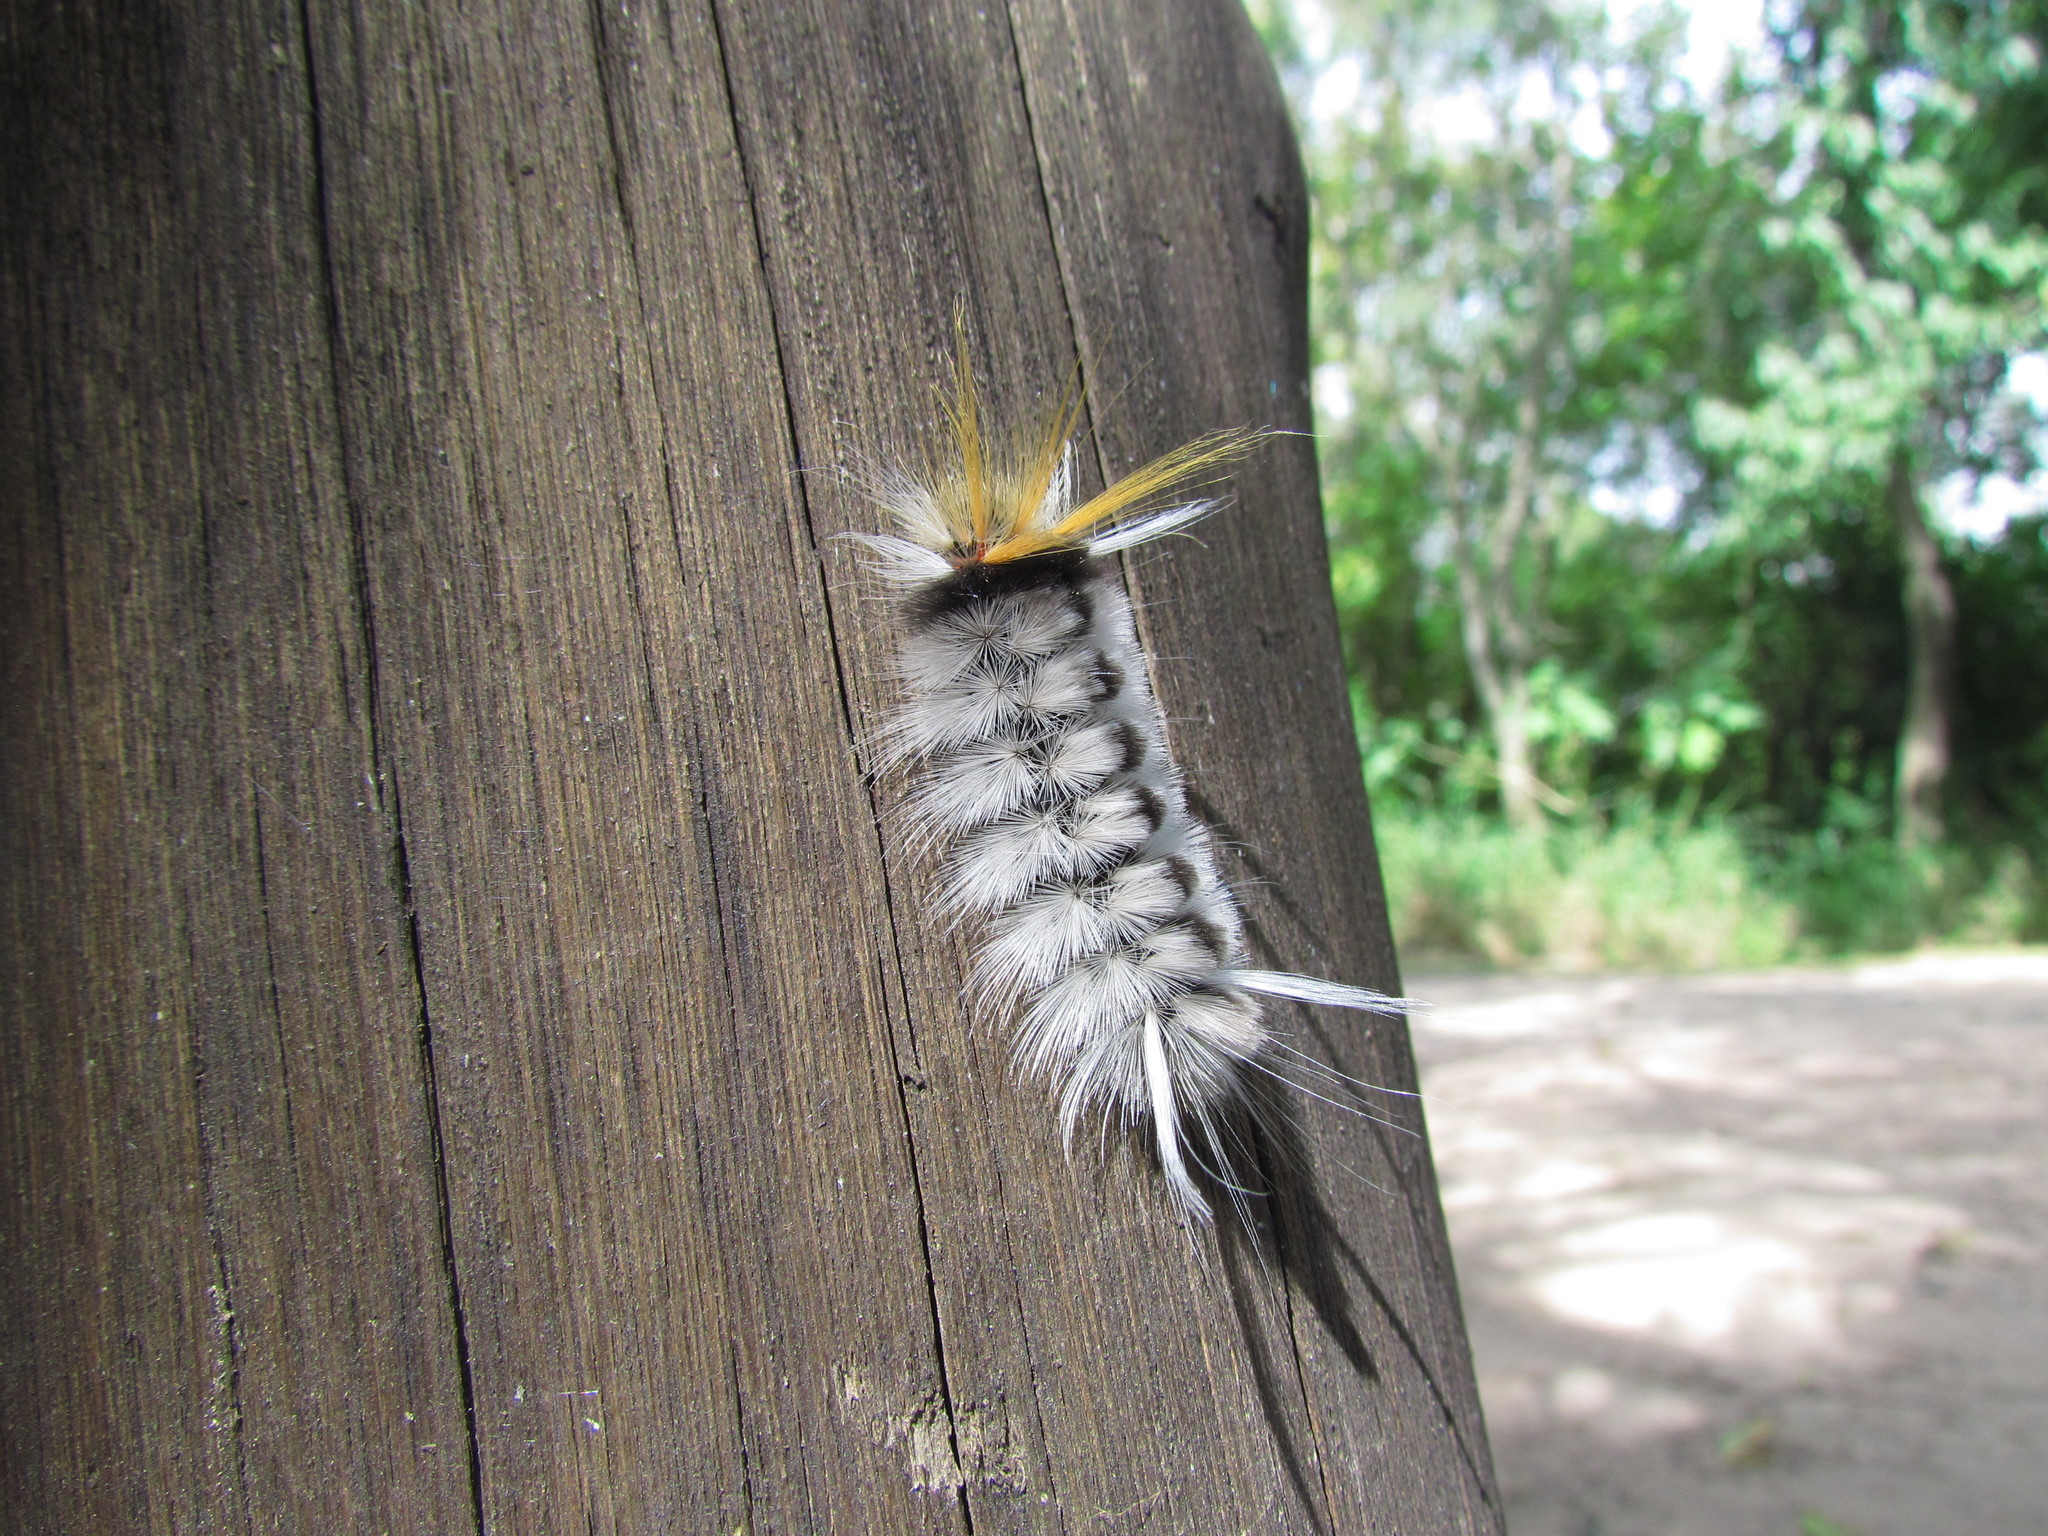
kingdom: Animalia
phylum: Arthropoda
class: Insecta
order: Lepidoptera
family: Erebidae
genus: Halysidota
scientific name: Halysidota ruscheweyhi
